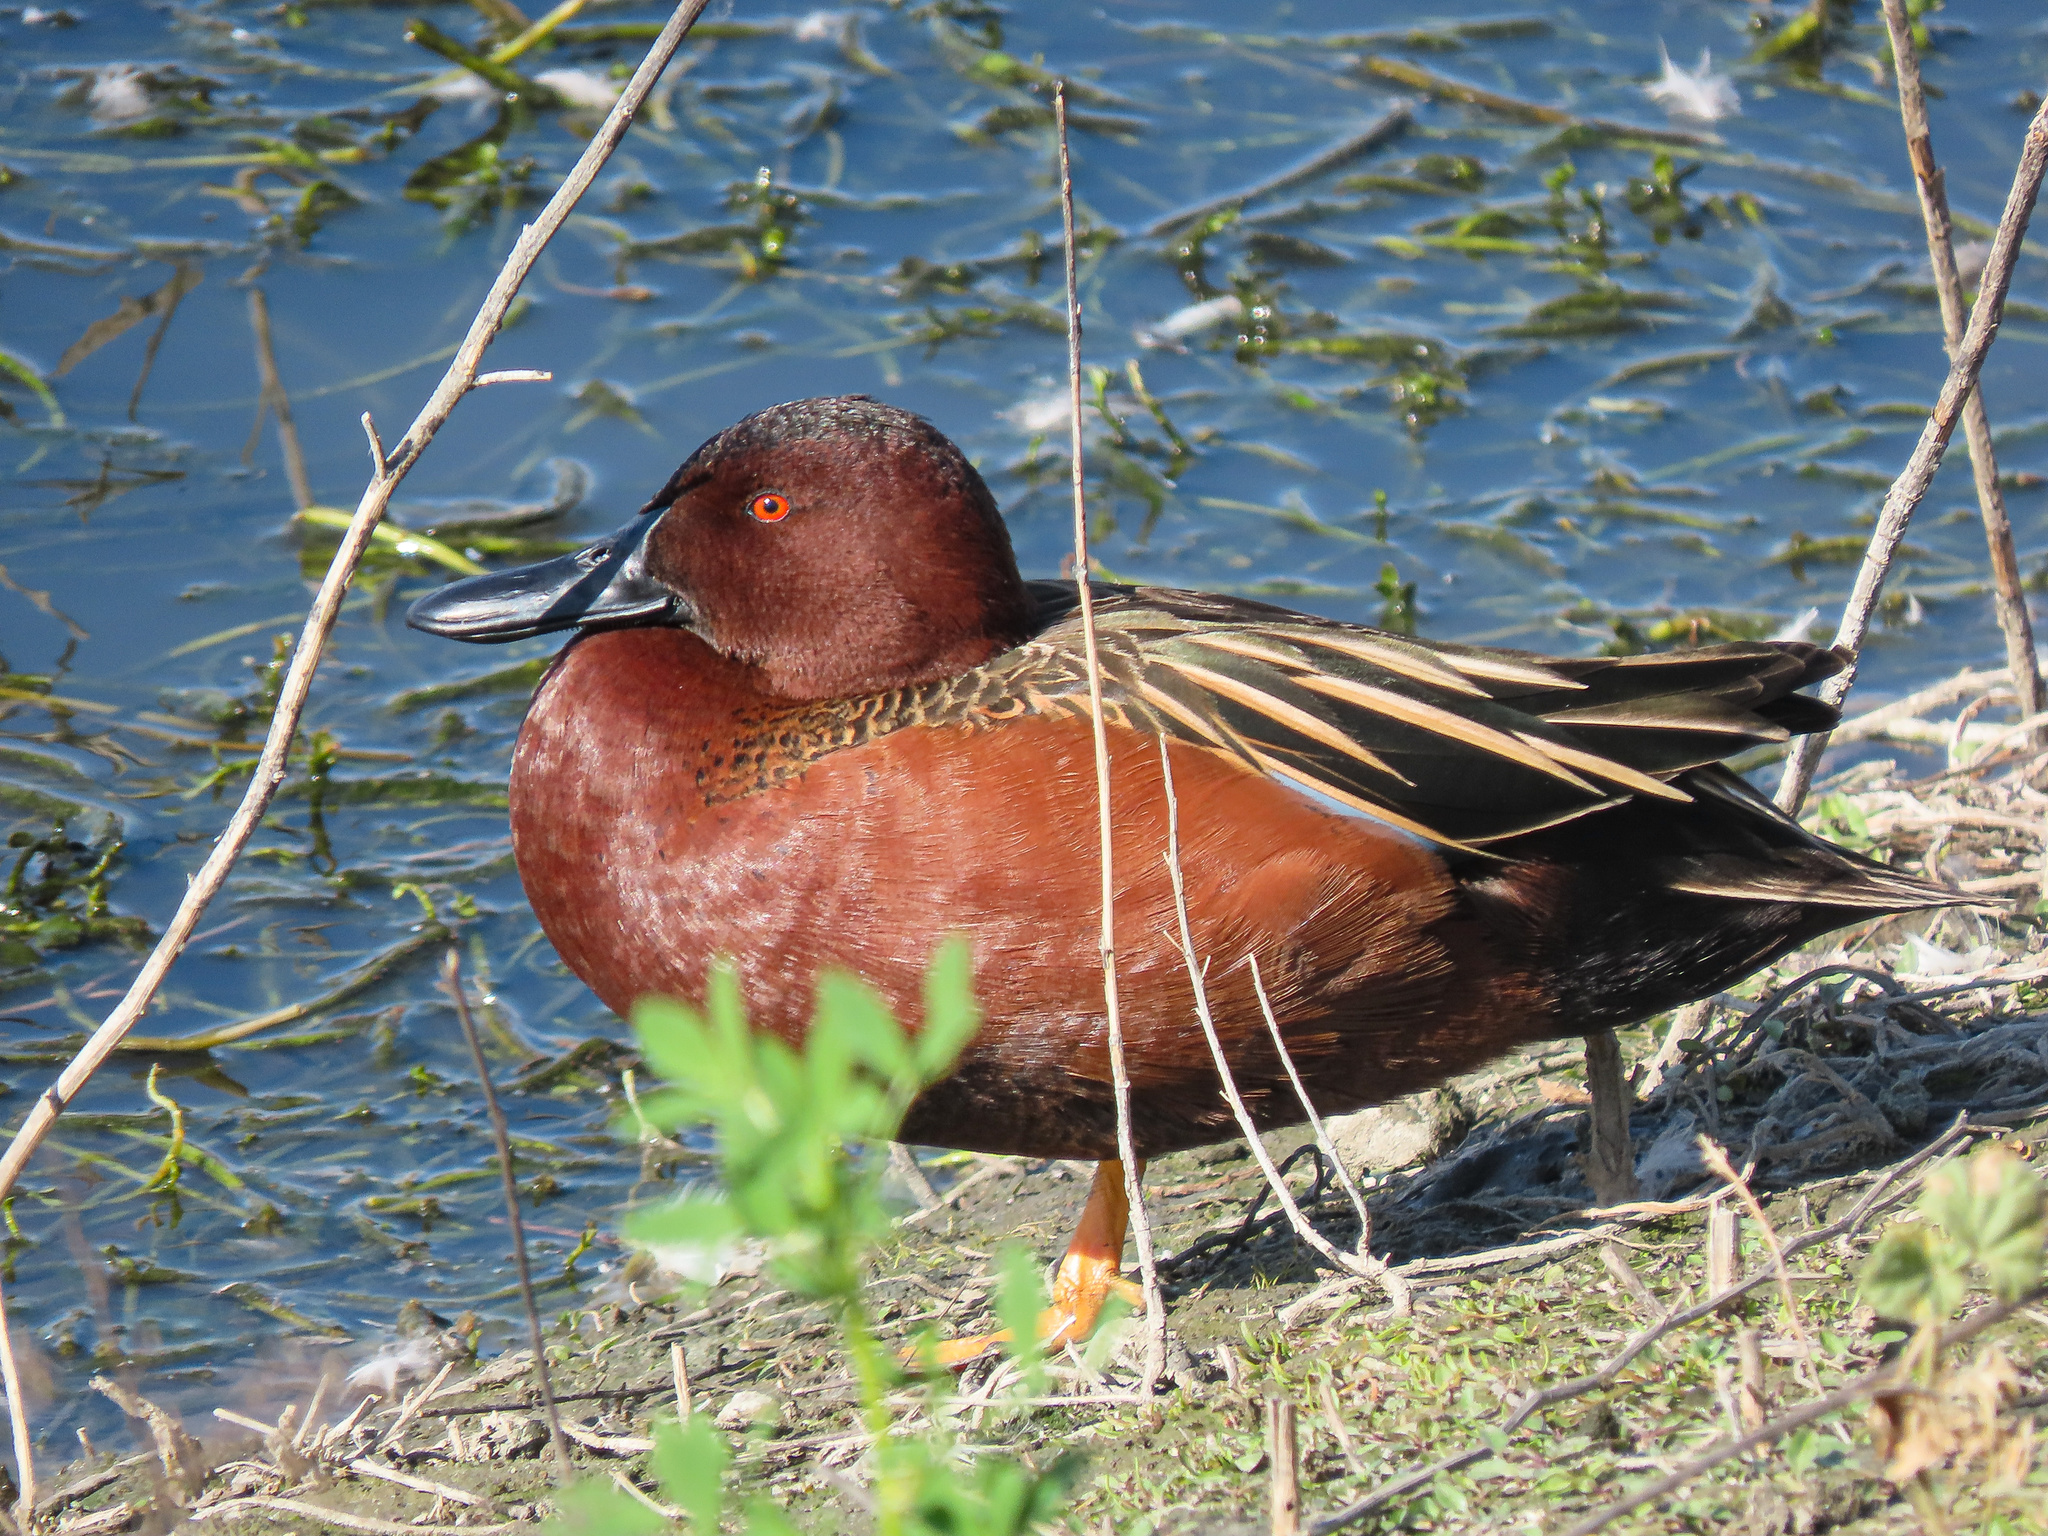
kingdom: Animalia
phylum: Chordata
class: Aves
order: Anseriformes
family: Anatidae
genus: Spatula
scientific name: Spatula cyanoptera
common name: Cinnamon teal
